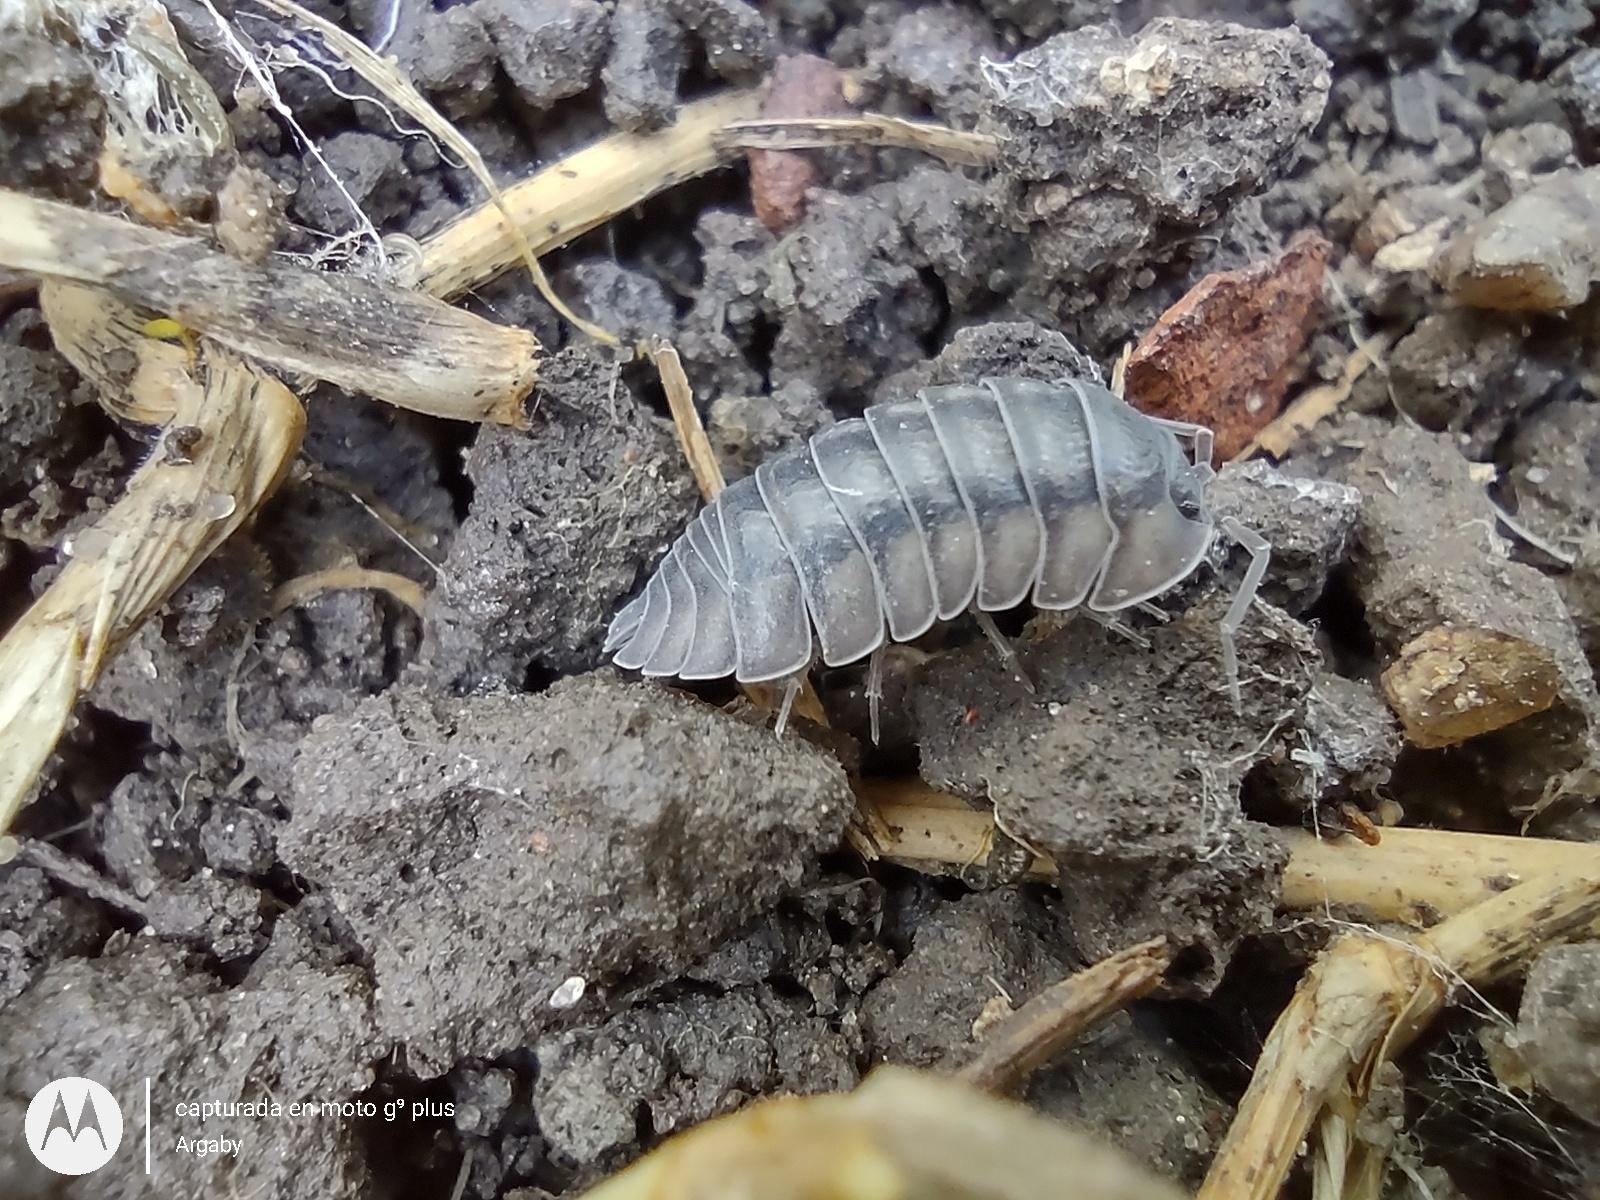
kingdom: Animalia
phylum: Arthropoda
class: Malacostraca
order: Isopoda
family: Armadillidiidae
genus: Armadillidium
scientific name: Armadillidium nasatum
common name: Isopod
